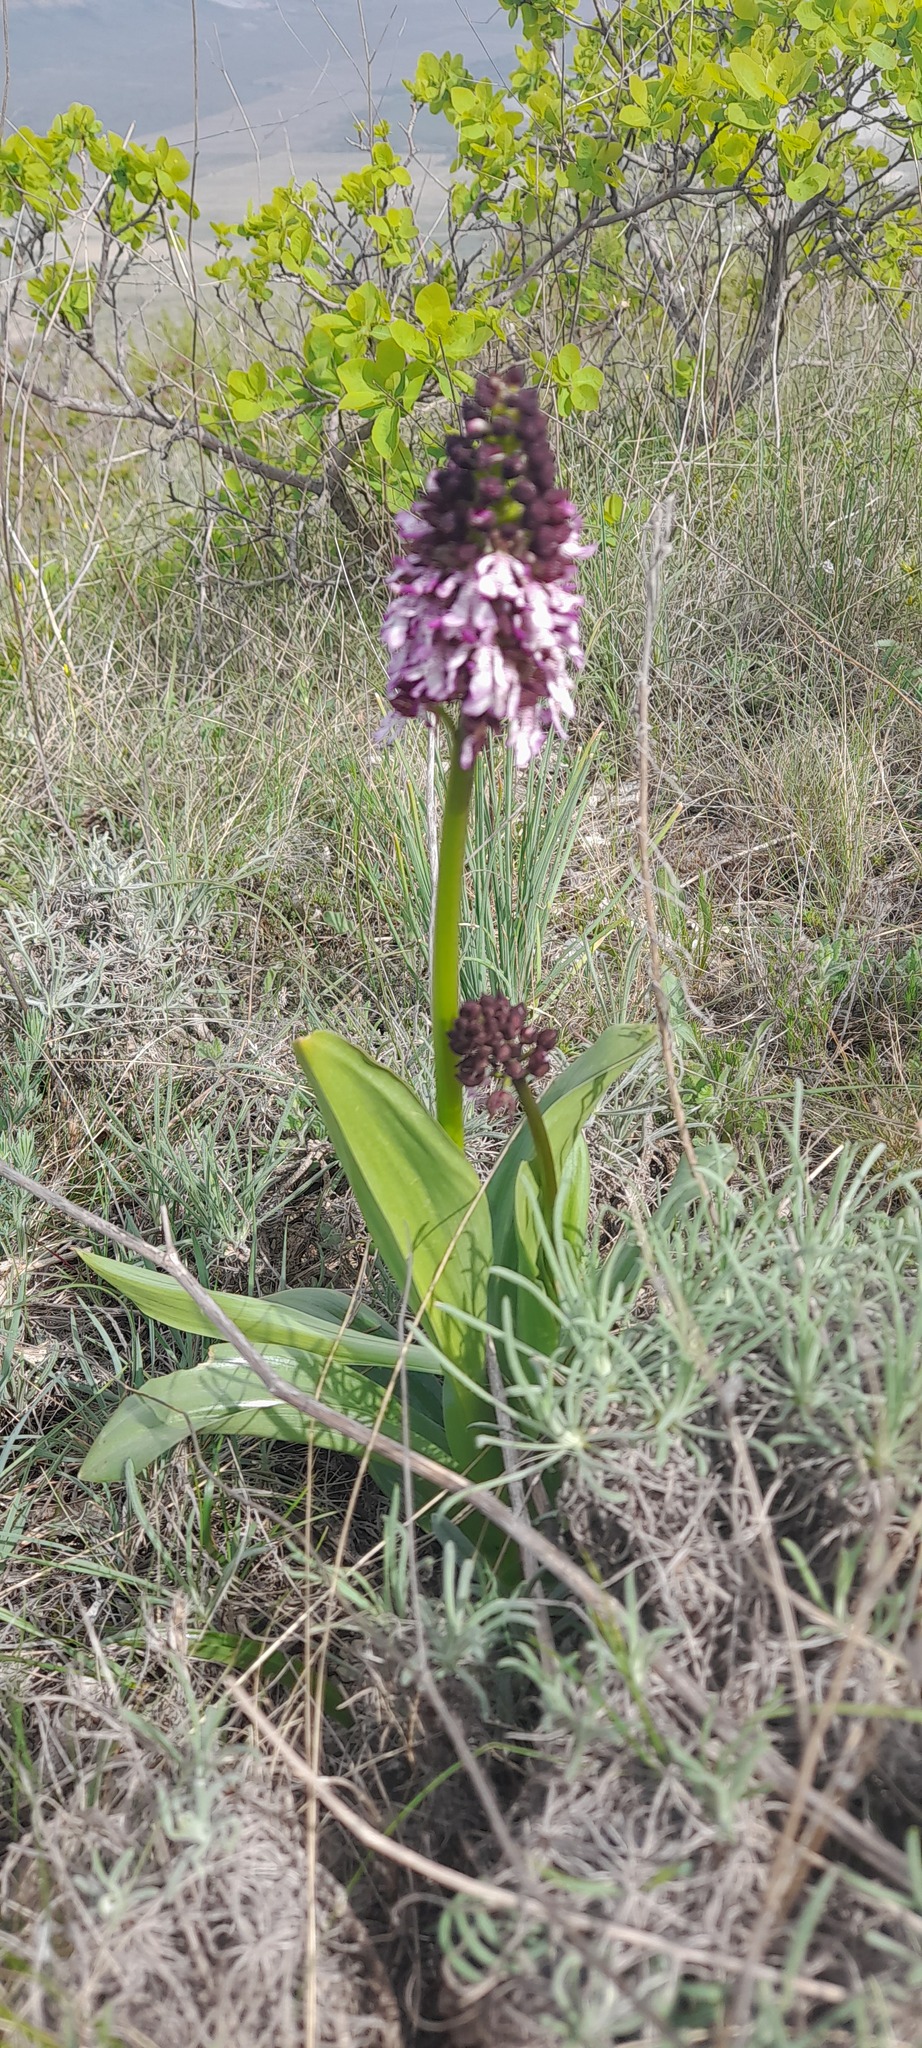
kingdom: Plantae
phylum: Tracheophyta
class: Liliopsida
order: Asparagales
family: Orchidaceae
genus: Orchis
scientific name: Orchis purpurea
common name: Lady orchid
